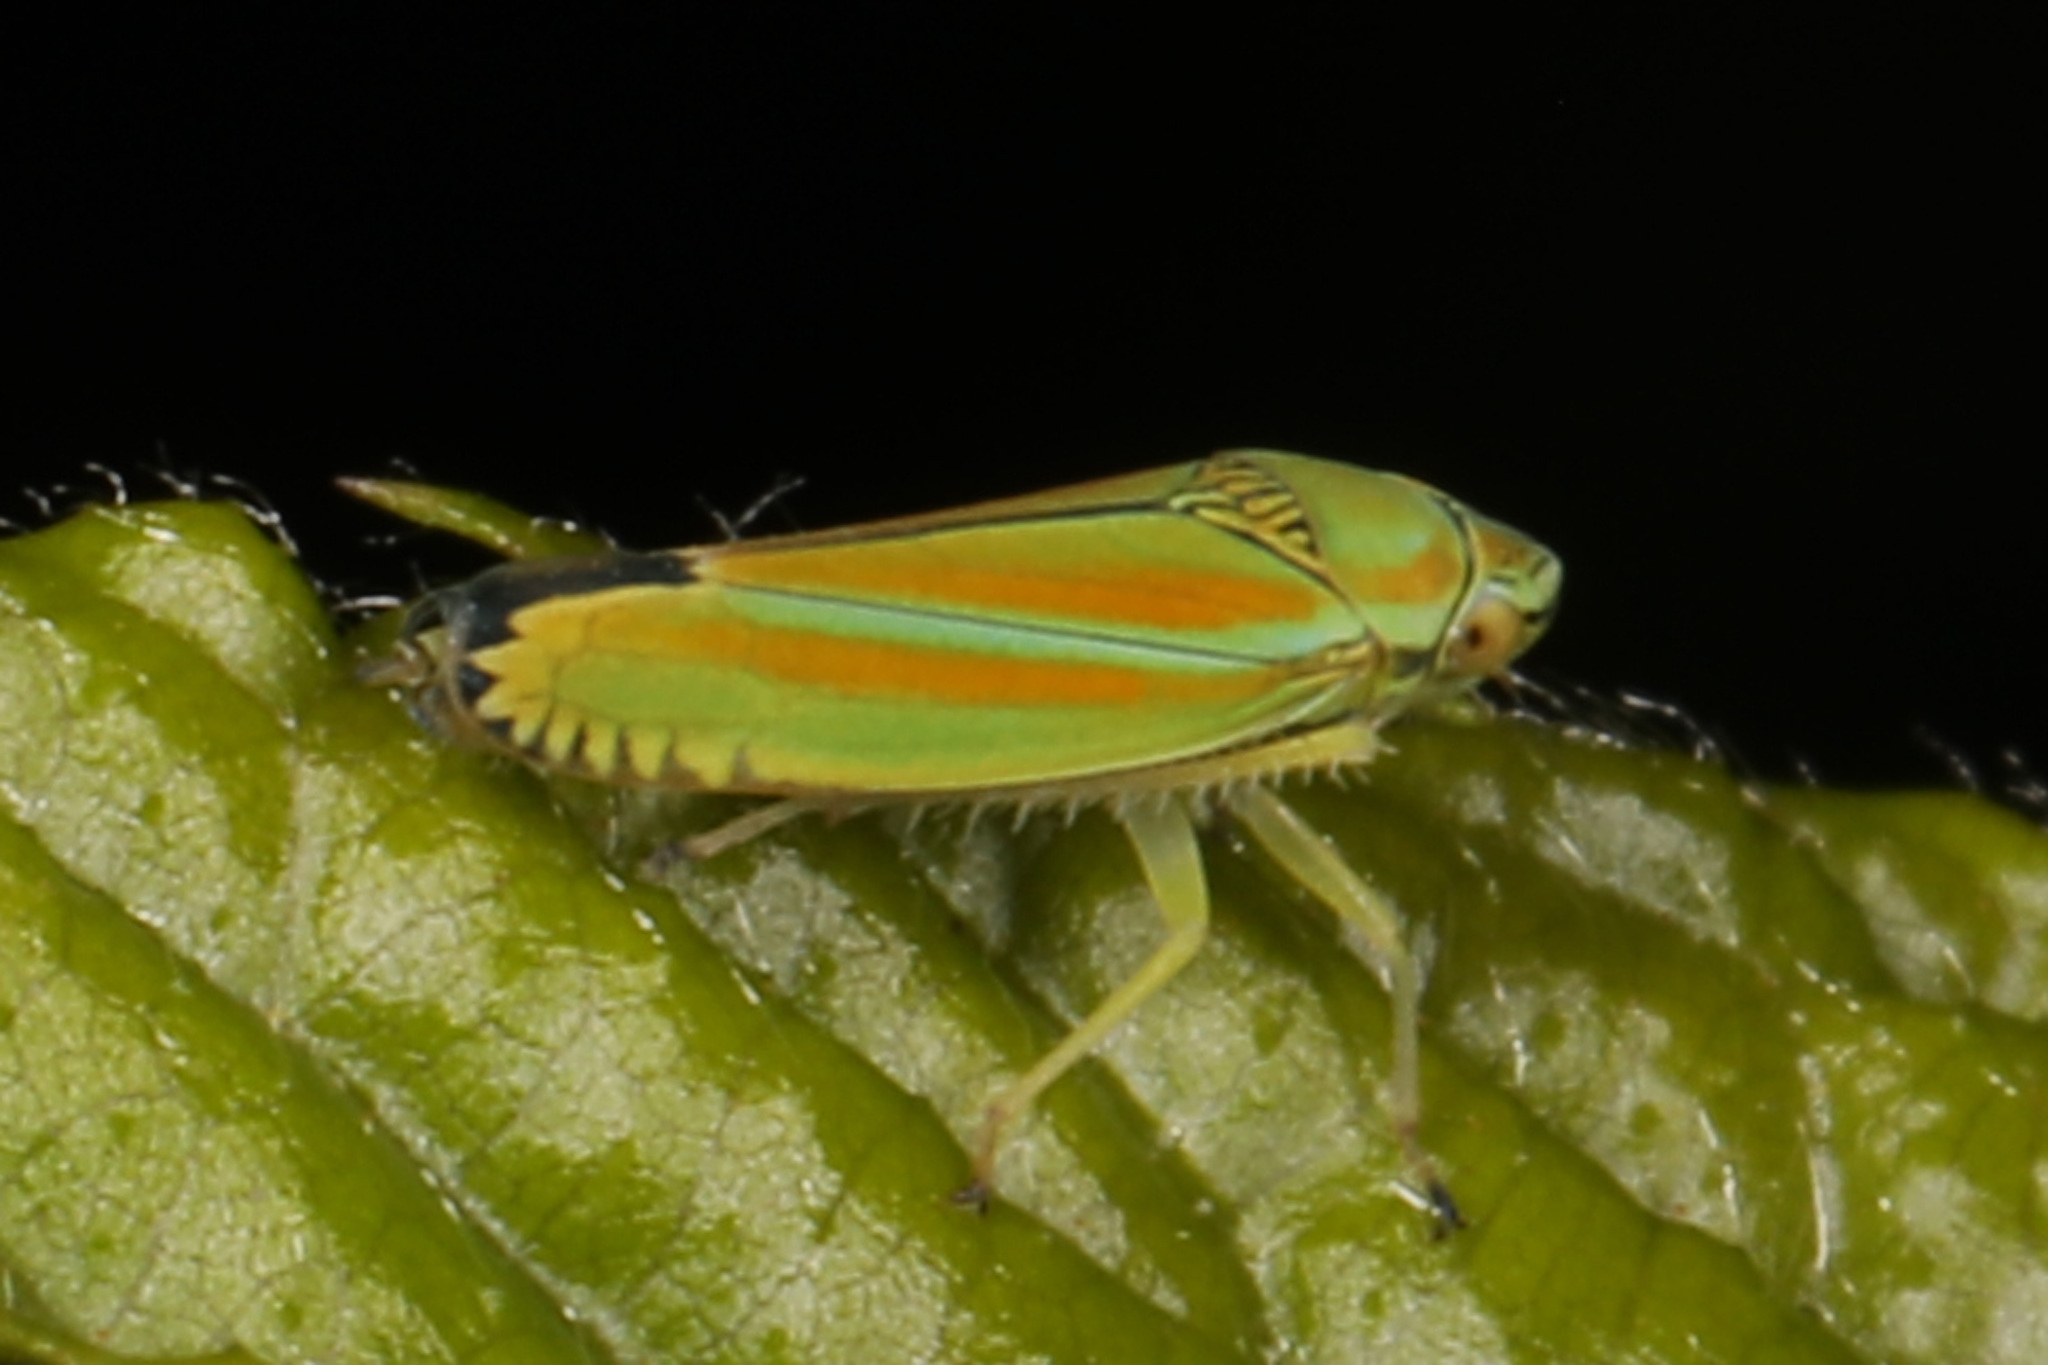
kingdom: Animalia
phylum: Arthropoda
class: Insecta
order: Hemiptera
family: Cicadellidae
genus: Graphocephala
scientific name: Graphocephala versuta
